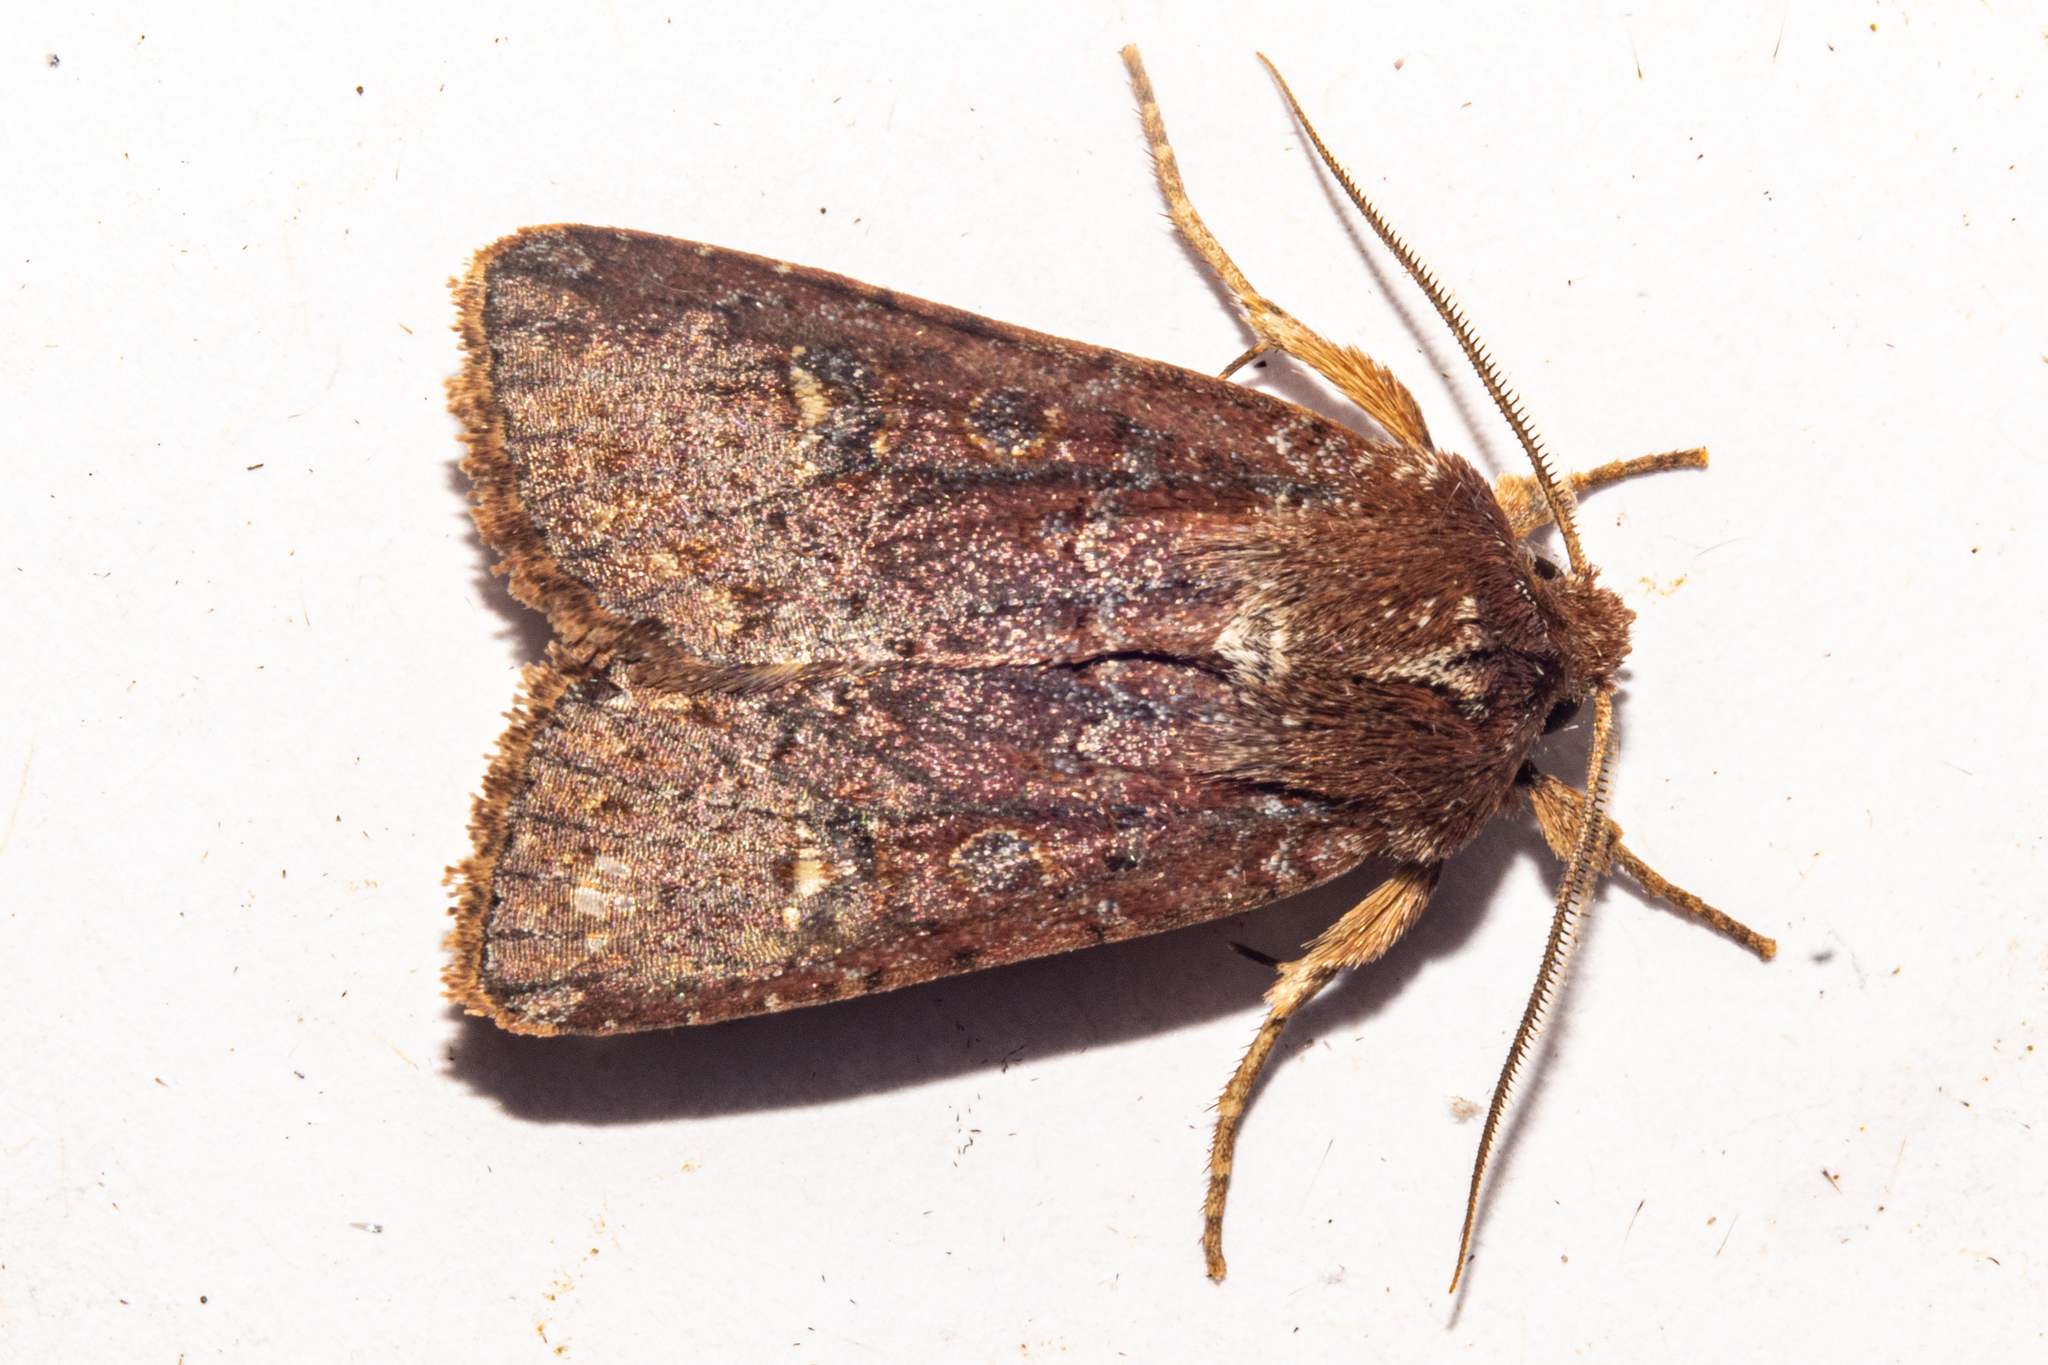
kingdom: Animalia
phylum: Arthropoda
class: Insecta
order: Lepidoptera
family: Noctuidae
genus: Ichneutica
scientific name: Ichneutica agorastis
